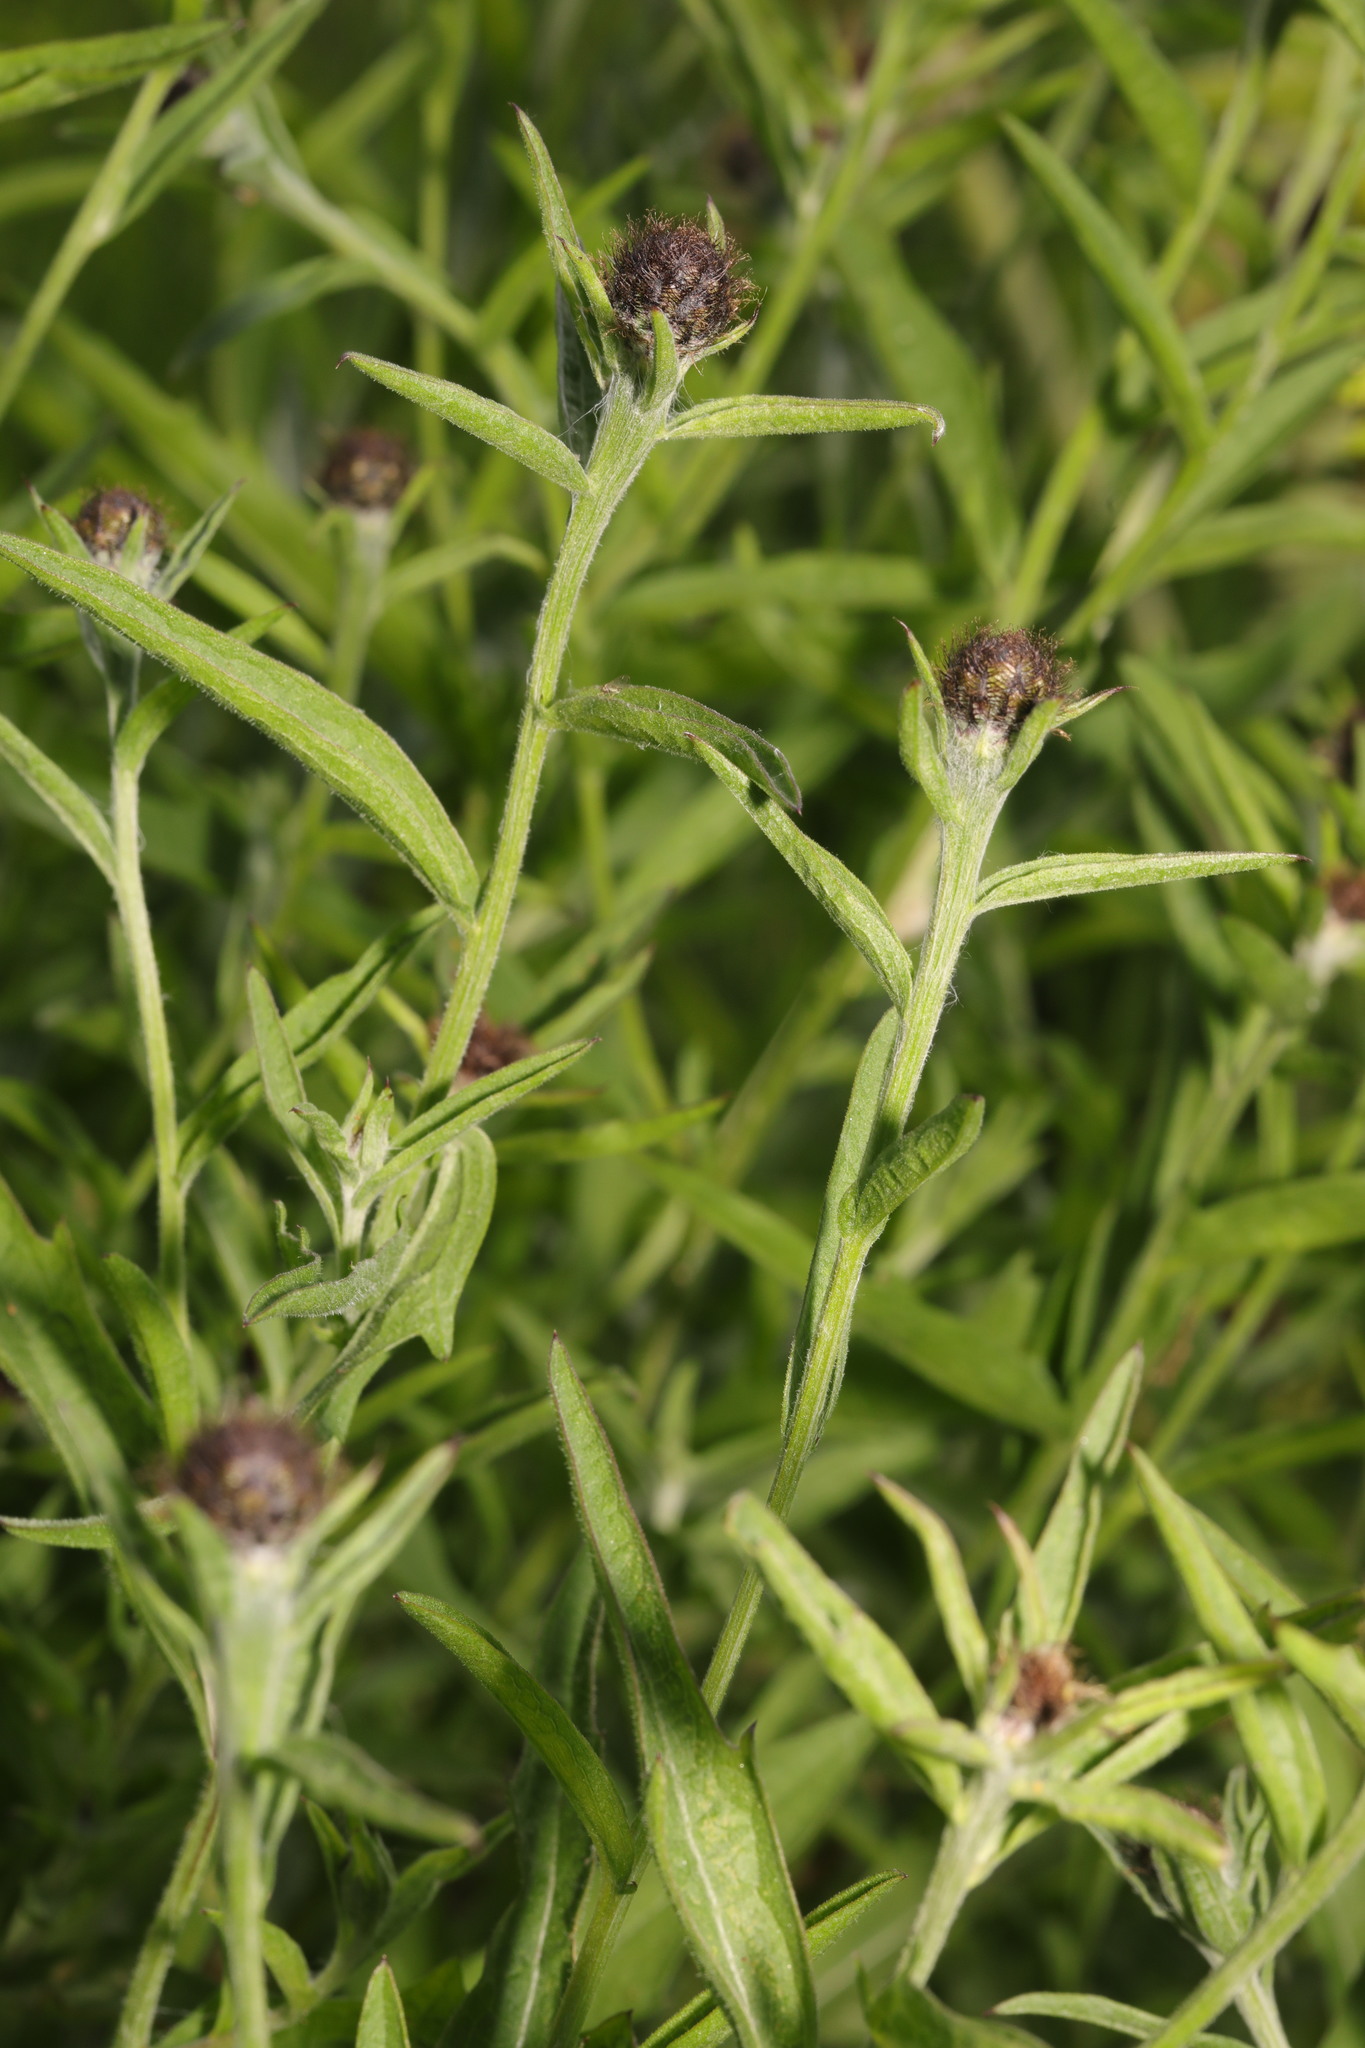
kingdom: Plantae
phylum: Tracheophyta
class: Magnoliopsida
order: Asterales
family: Asteraceae
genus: Centaurea
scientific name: Centaurea nigra
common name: Lesser knapweed
